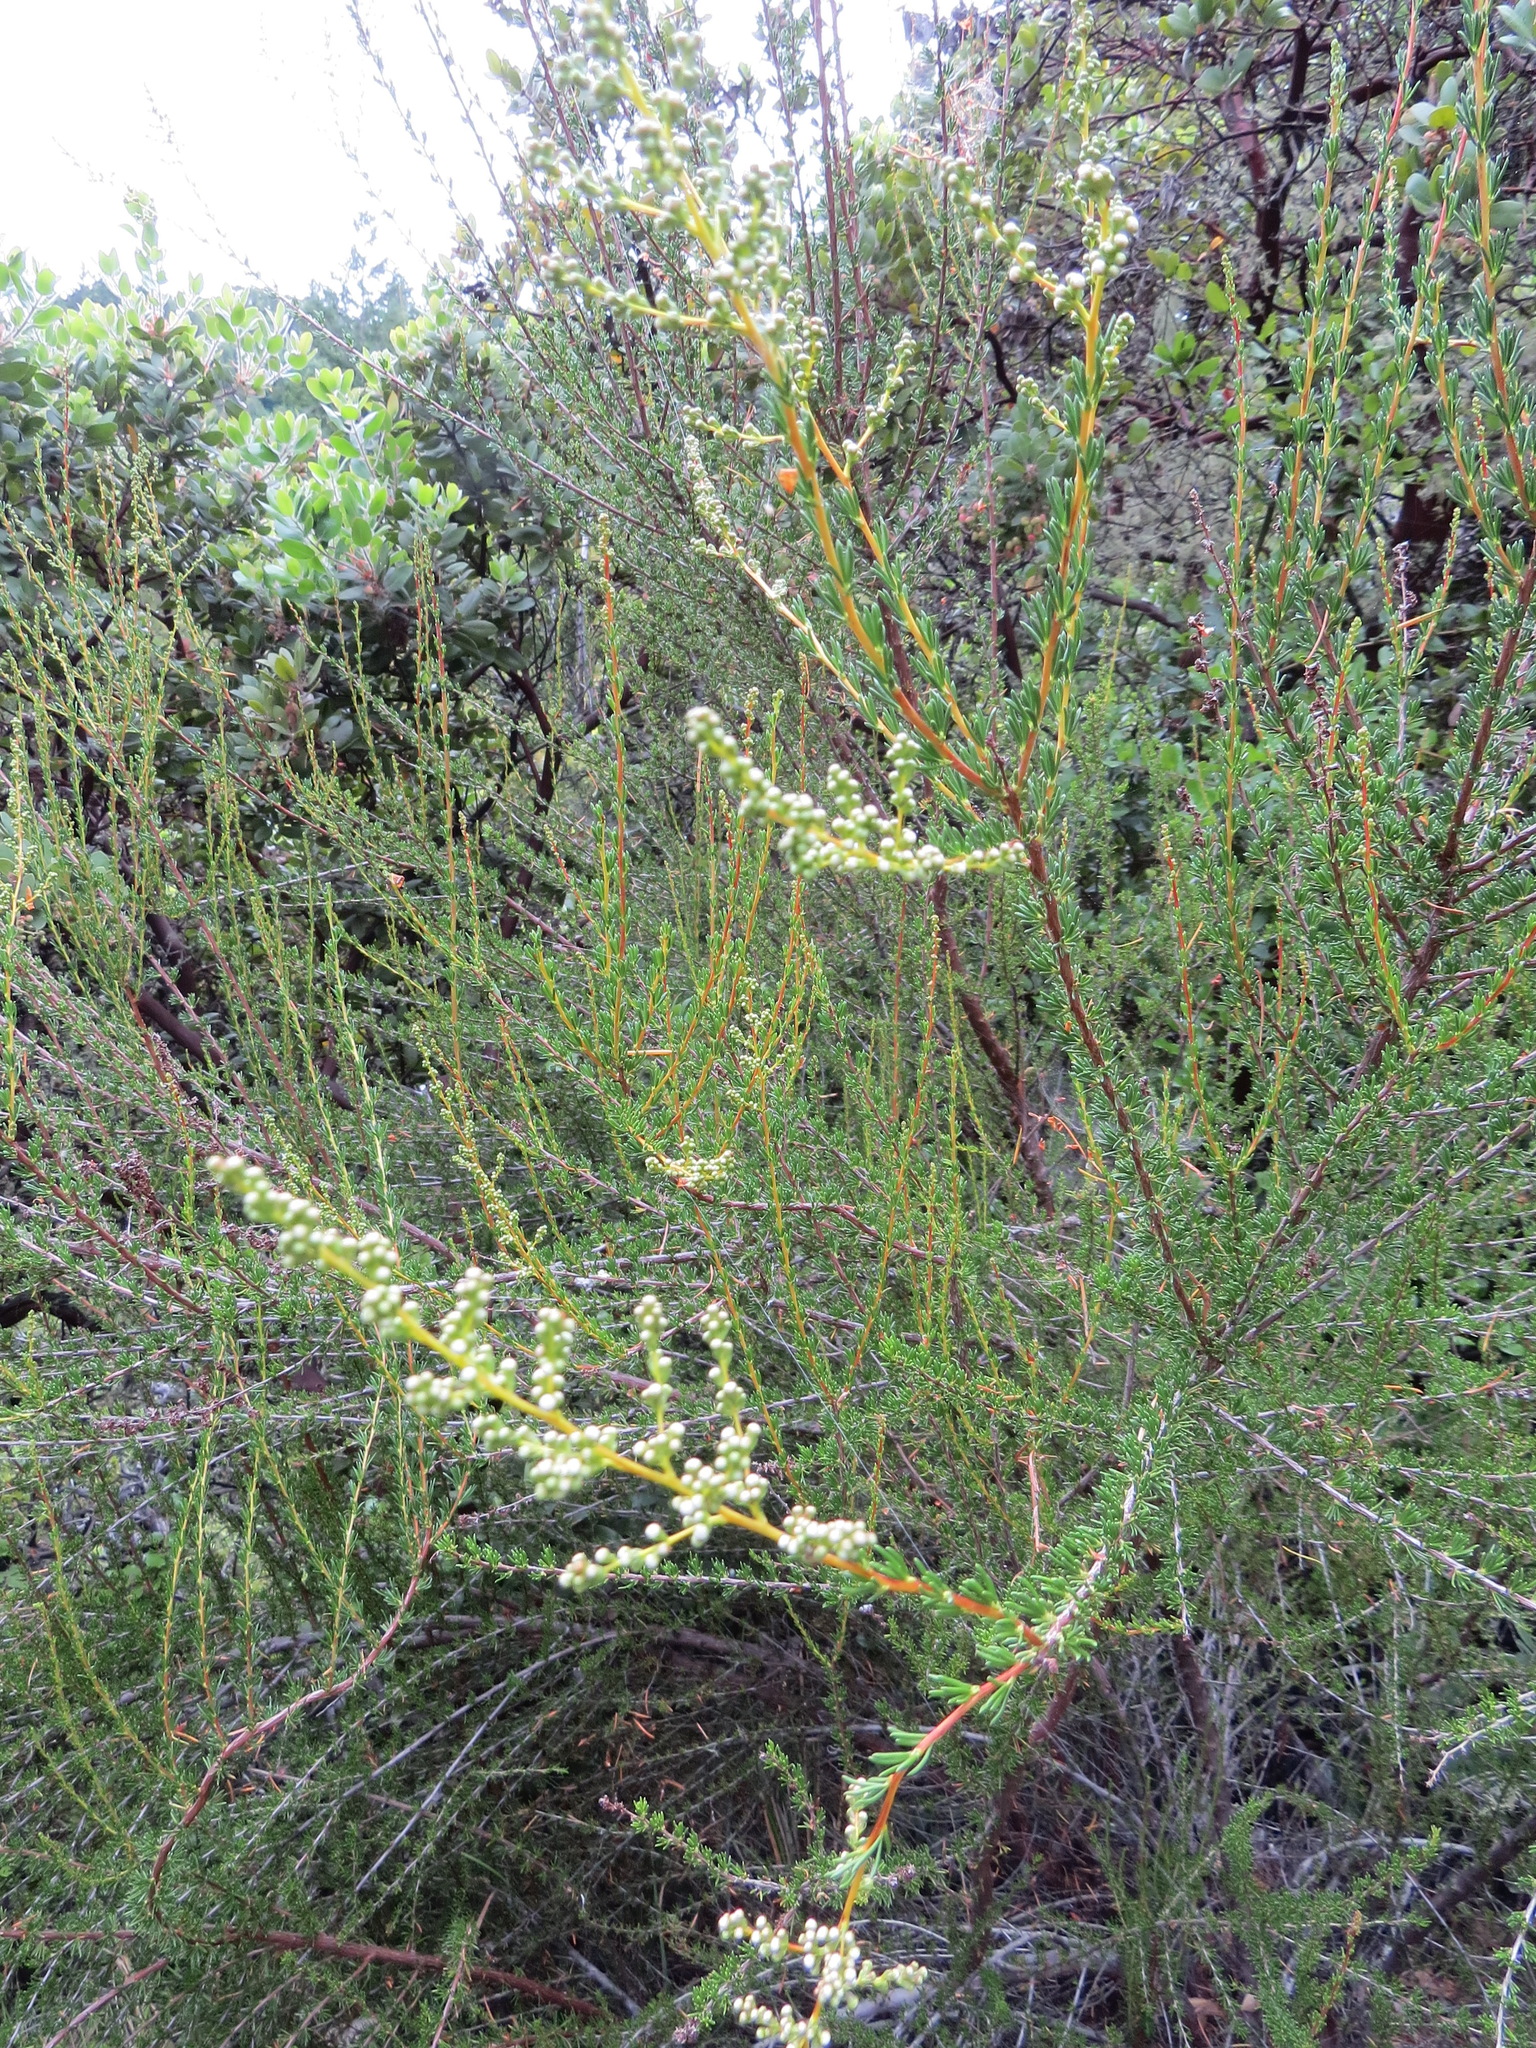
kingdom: Plantae
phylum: Tracheophyta
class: Magnoliopsida
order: Rosales
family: Rosaceae
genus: Adenostoma
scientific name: Adenostoma fasciculatum
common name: Chamise
